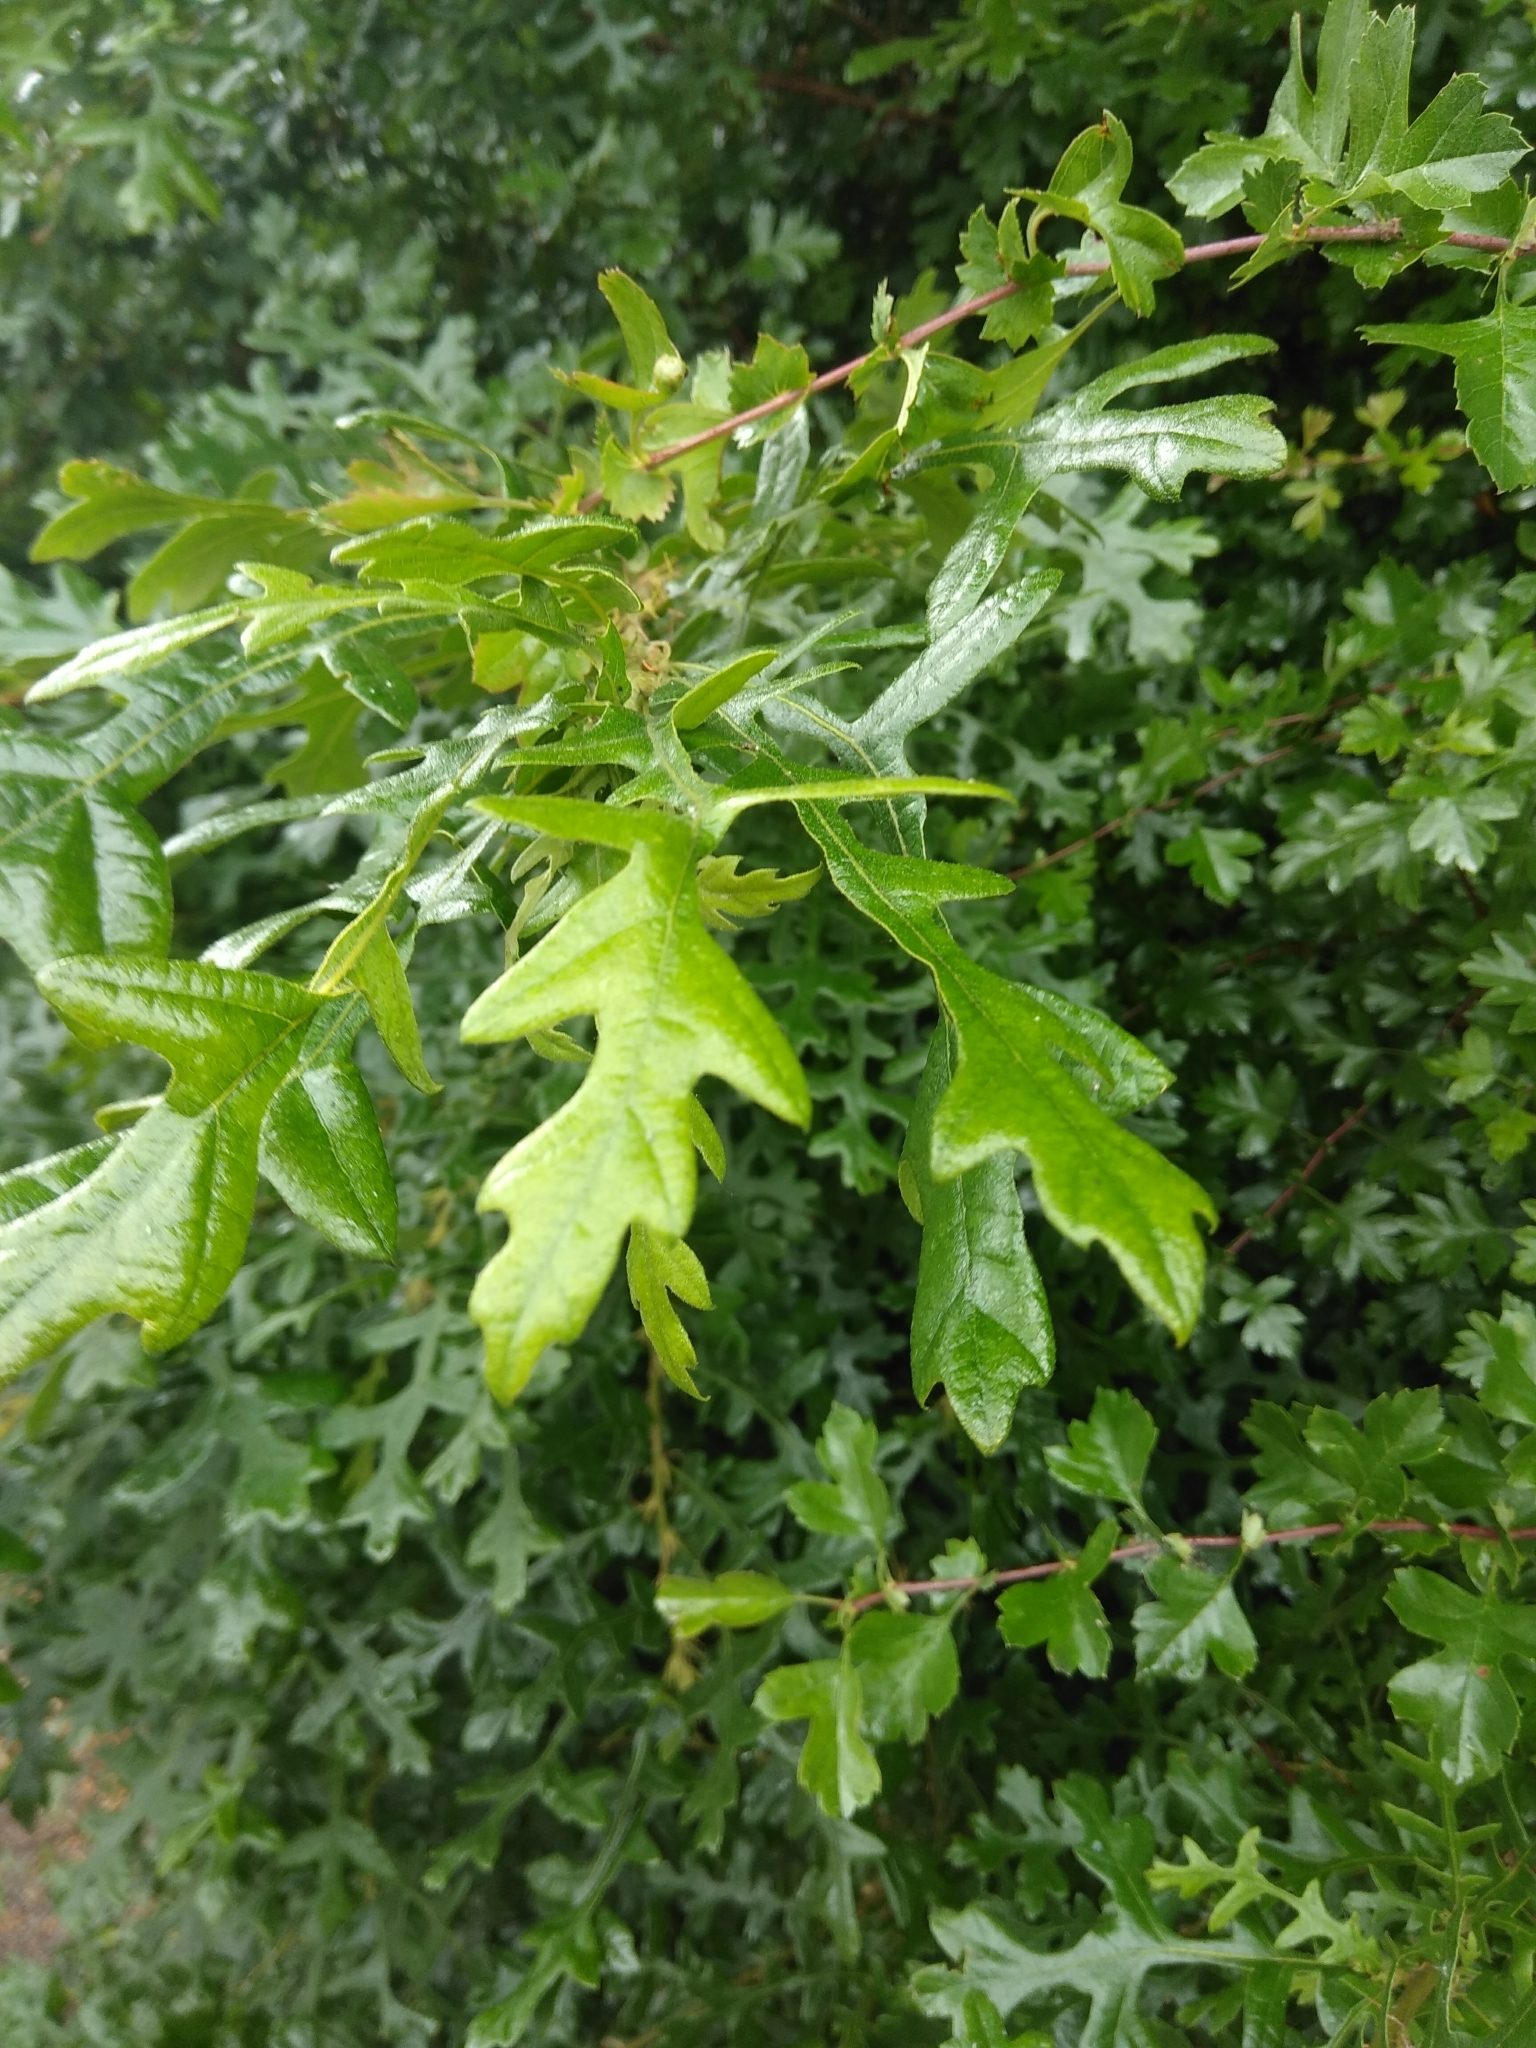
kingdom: Plantae
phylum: Tracheophyta
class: Magnoliopsida
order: Fagales
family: Fagaceae
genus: Quercus
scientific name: Quercus cerris
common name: Turkey oak
